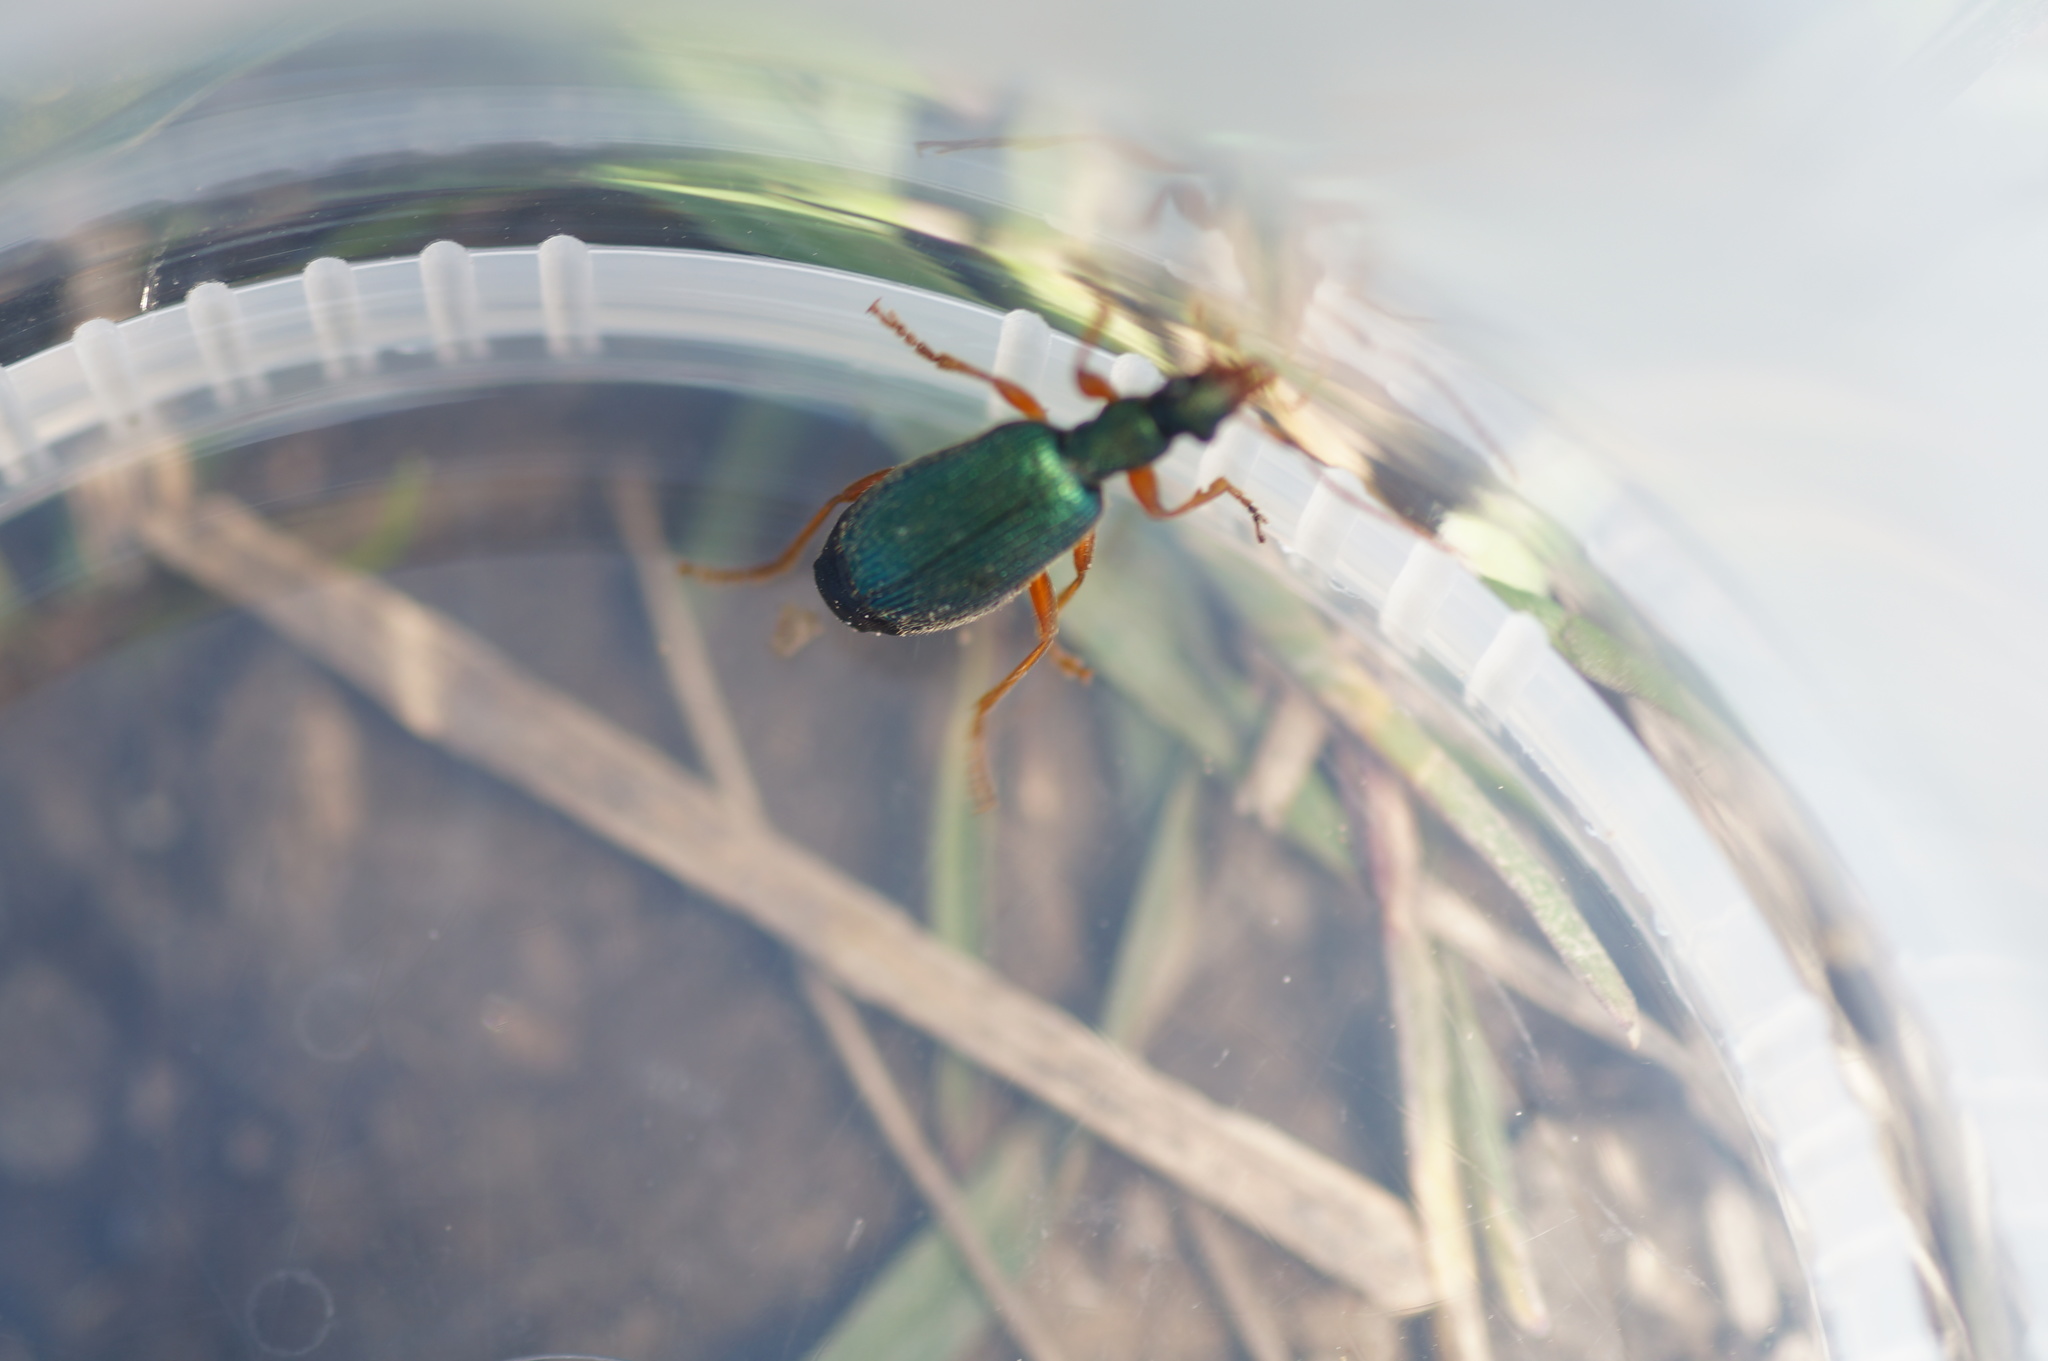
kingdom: Animalia
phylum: Arthropoda
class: Insecta
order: Coleoptera
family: Carabidae
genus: Drypta
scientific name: Drypta dentata
